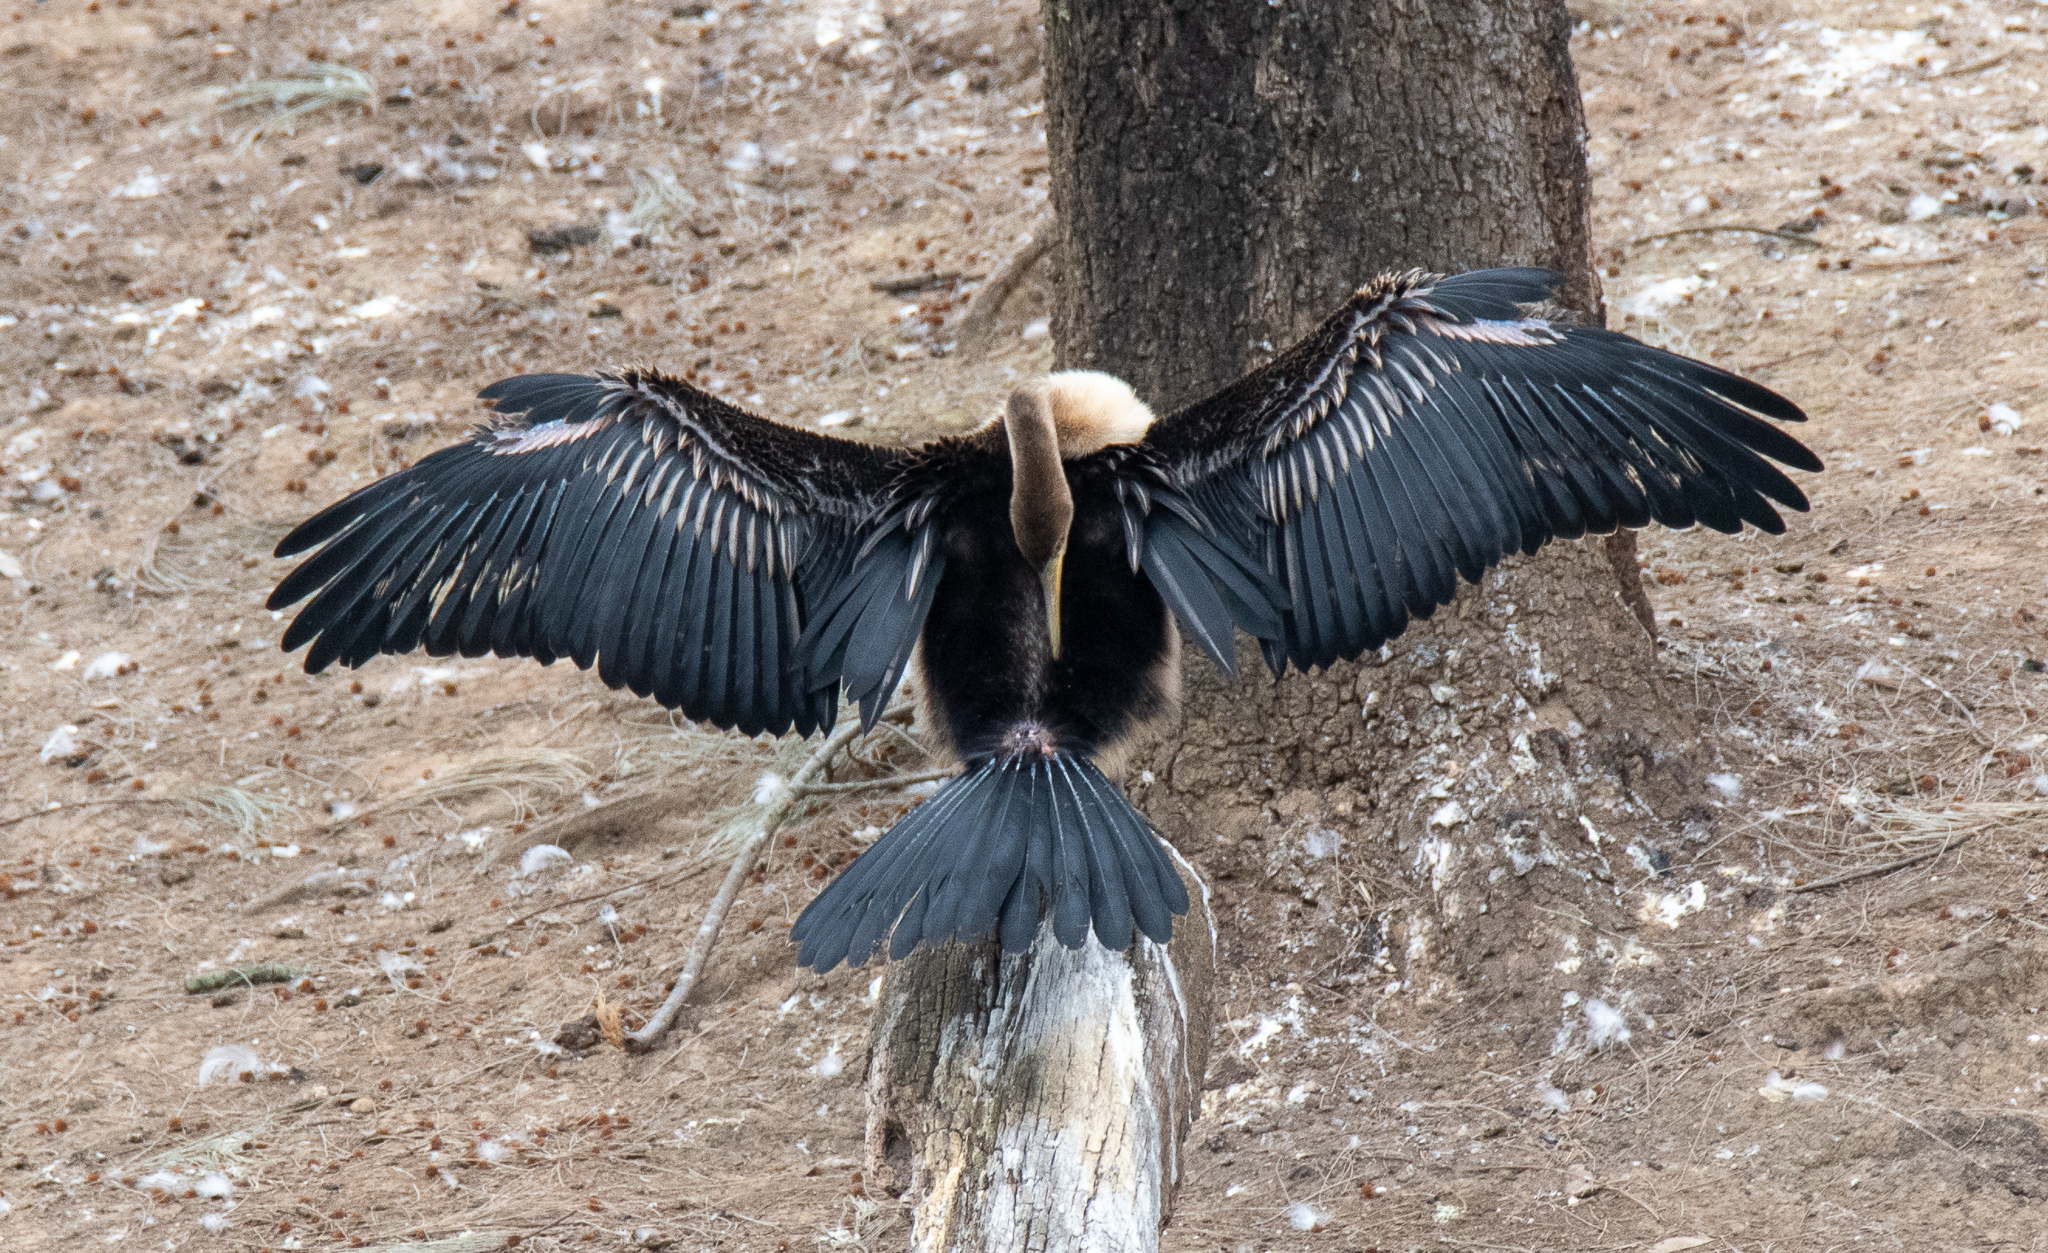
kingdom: Animalia
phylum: Chordata
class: Aves
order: Suliformes
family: Anhingidae
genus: Anhinga
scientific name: Anhinga novaehollandiae
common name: Australasian darter
